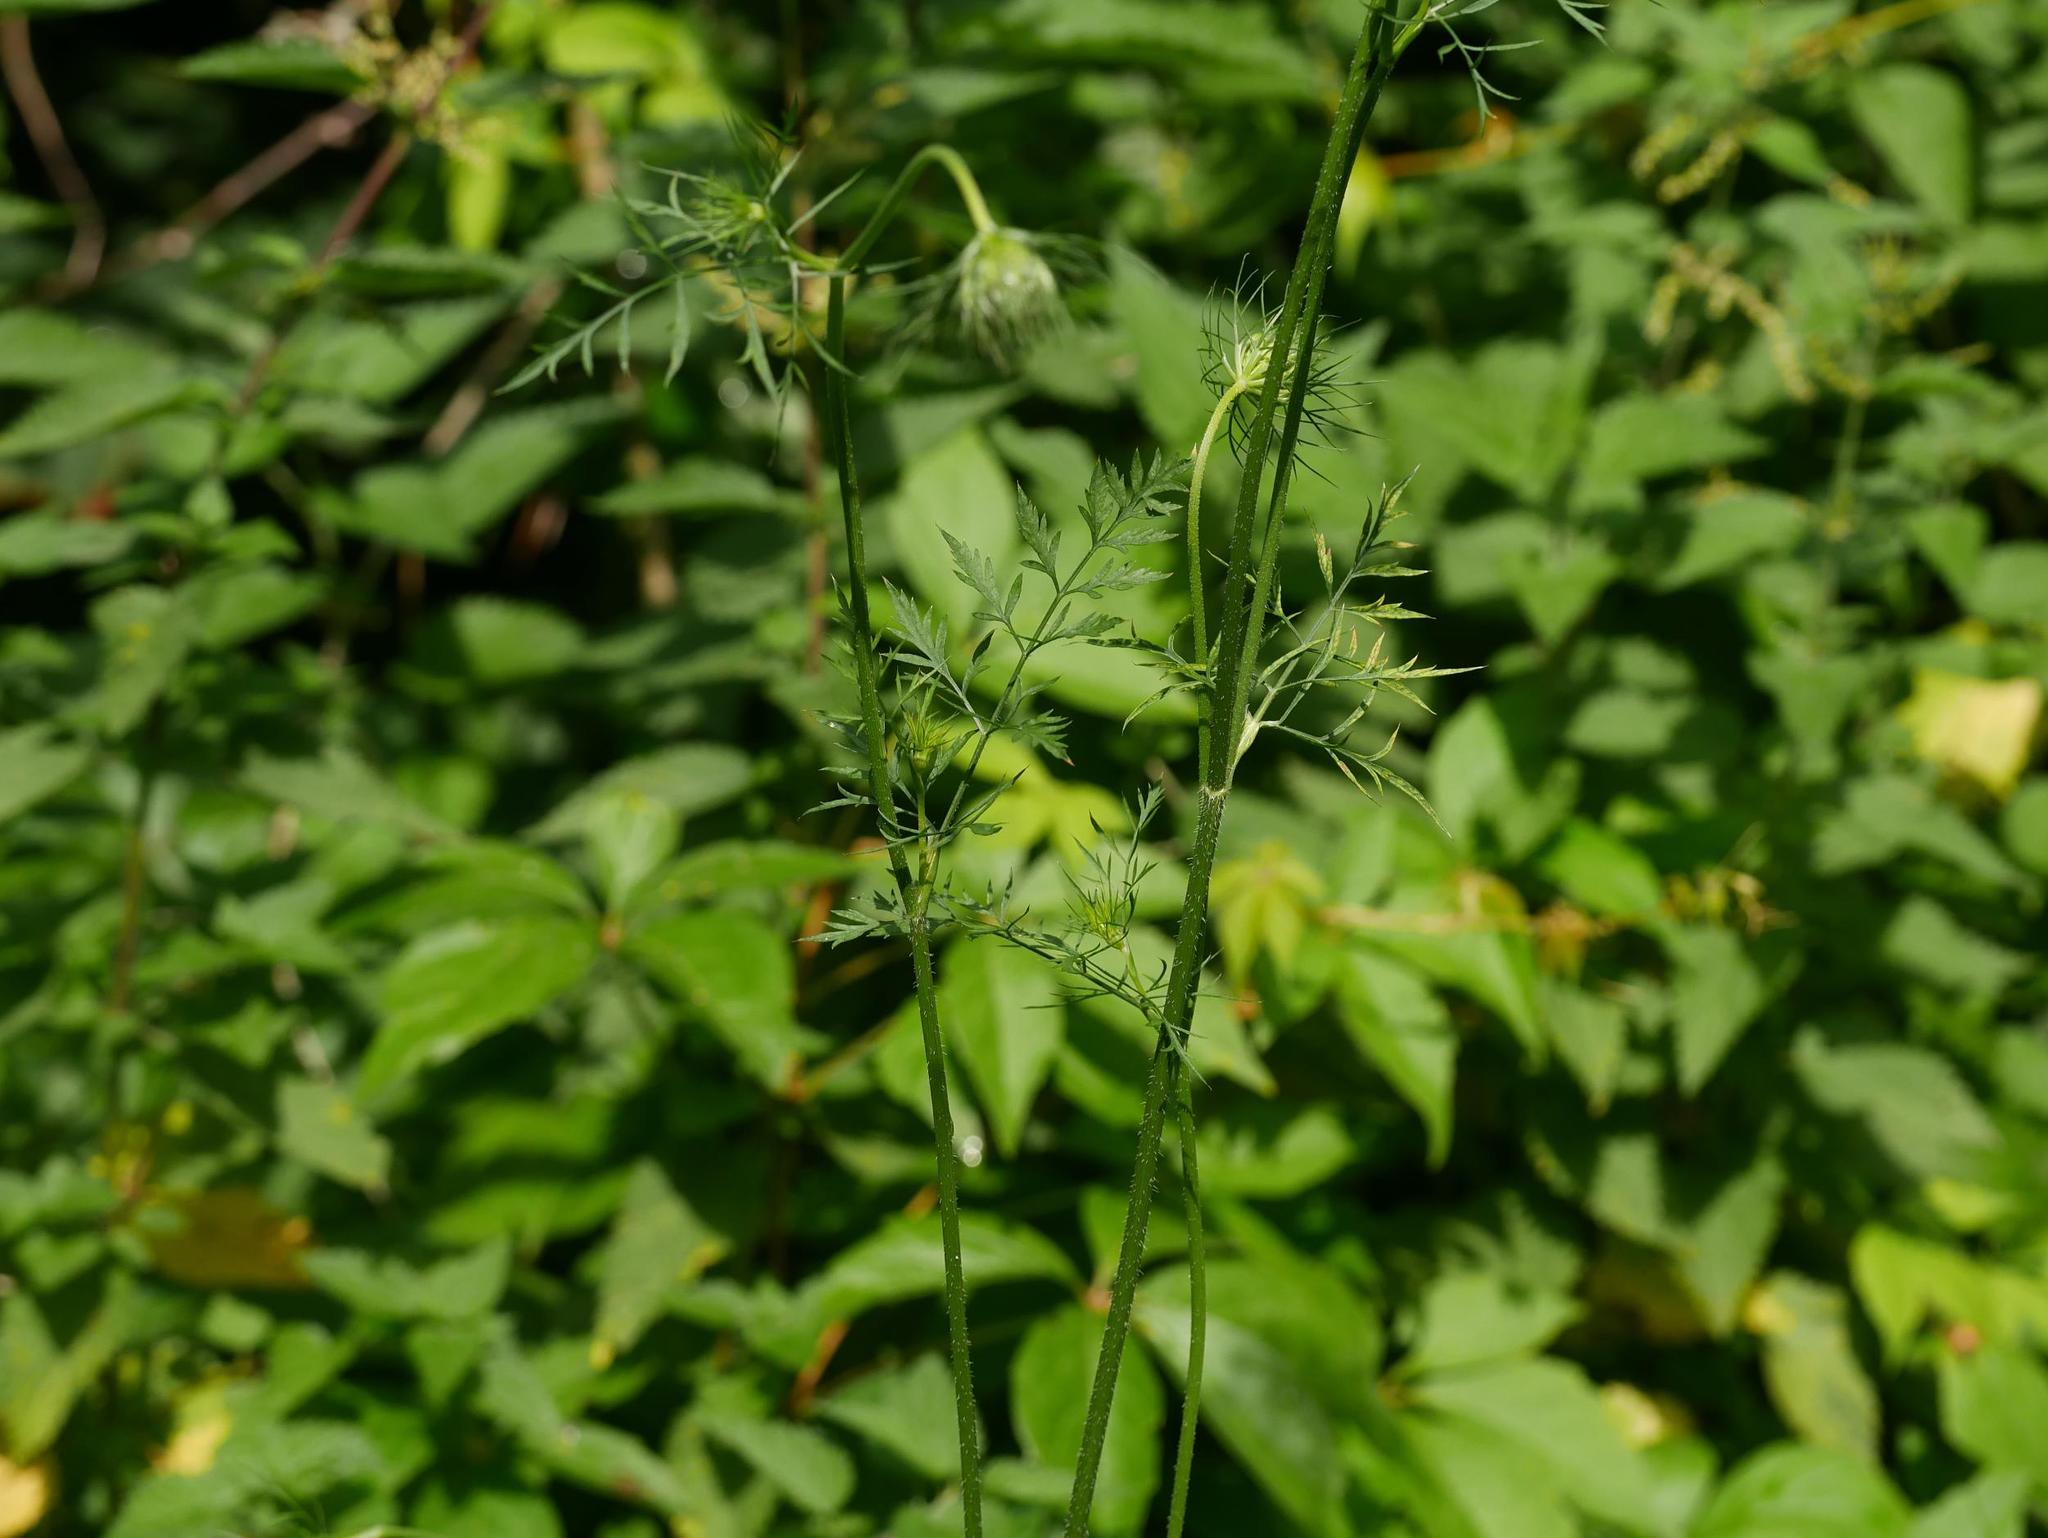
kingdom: Plantae
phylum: Tracheophyta
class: Magnoliopsida
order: Apiales
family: Apiaceae
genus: Daucus
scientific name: Daucus carota
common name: Wild carrot
